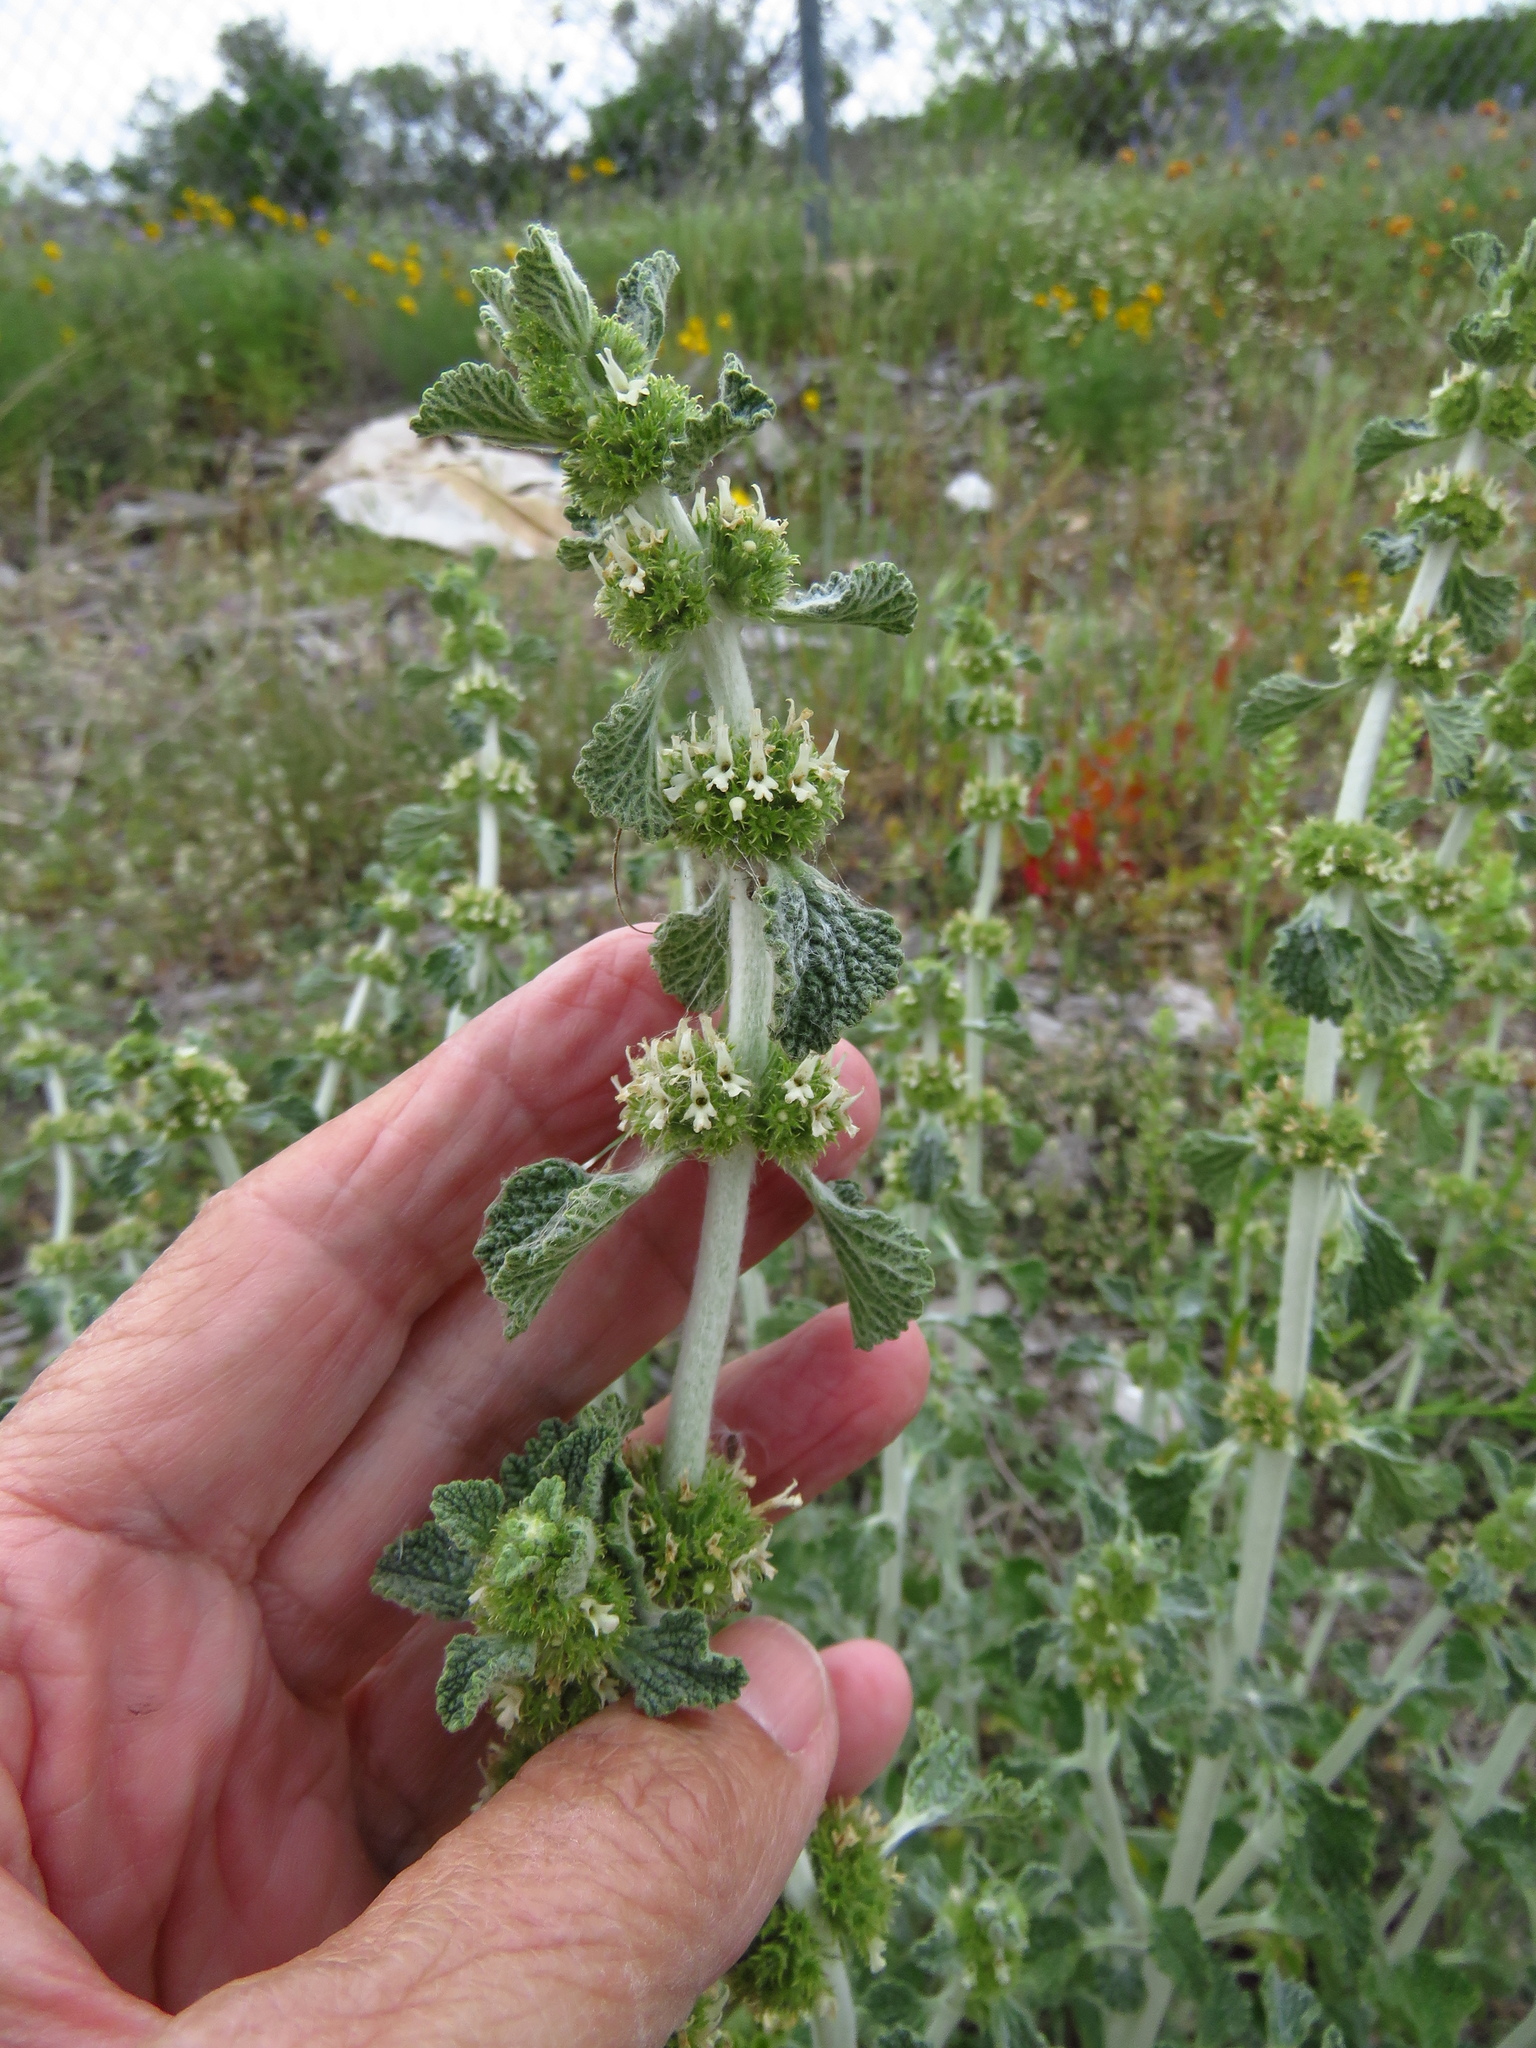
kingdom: Plantae
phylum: Tracheophyta
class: Magnoliopsida
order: Lamiales
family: Lamiaceae
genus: Marrubium
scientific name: Marrubium vulgare
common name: Horehound
